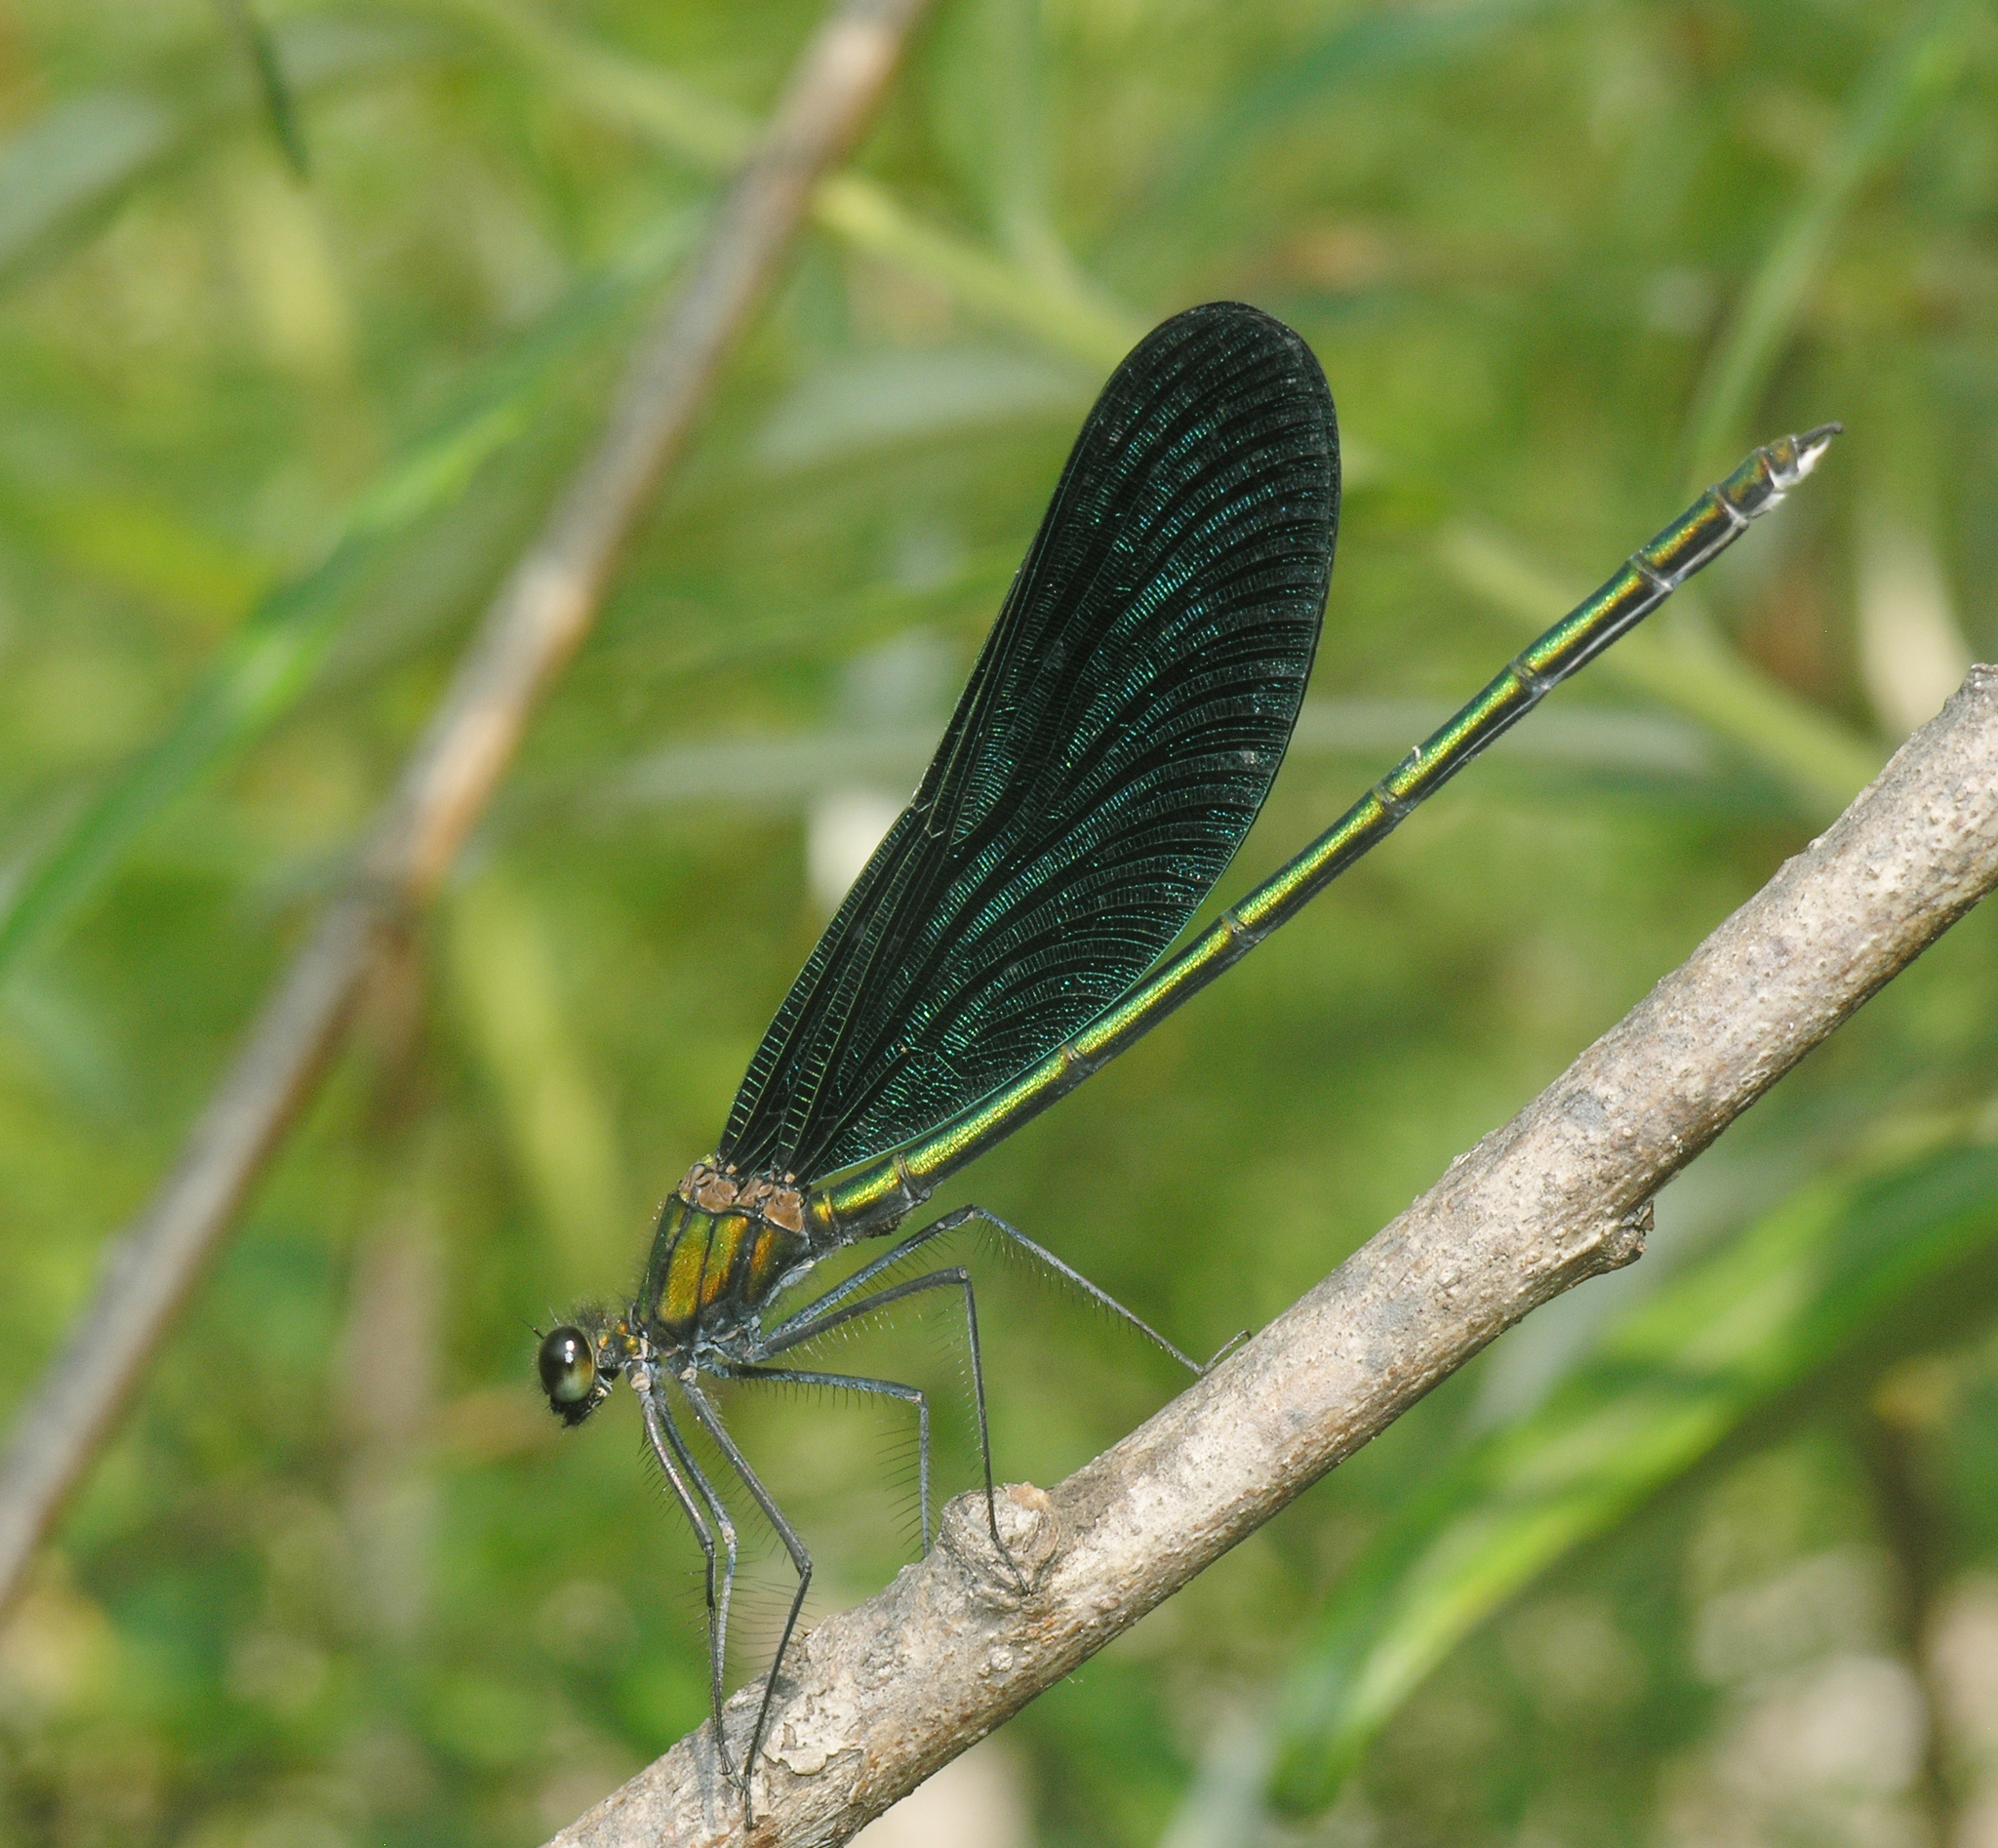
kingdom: Animalia
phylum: Arthropoda
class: Insecta
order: Odonata
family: Calopterygidae
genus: Calopteryx
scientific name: Calopteryx japonica
